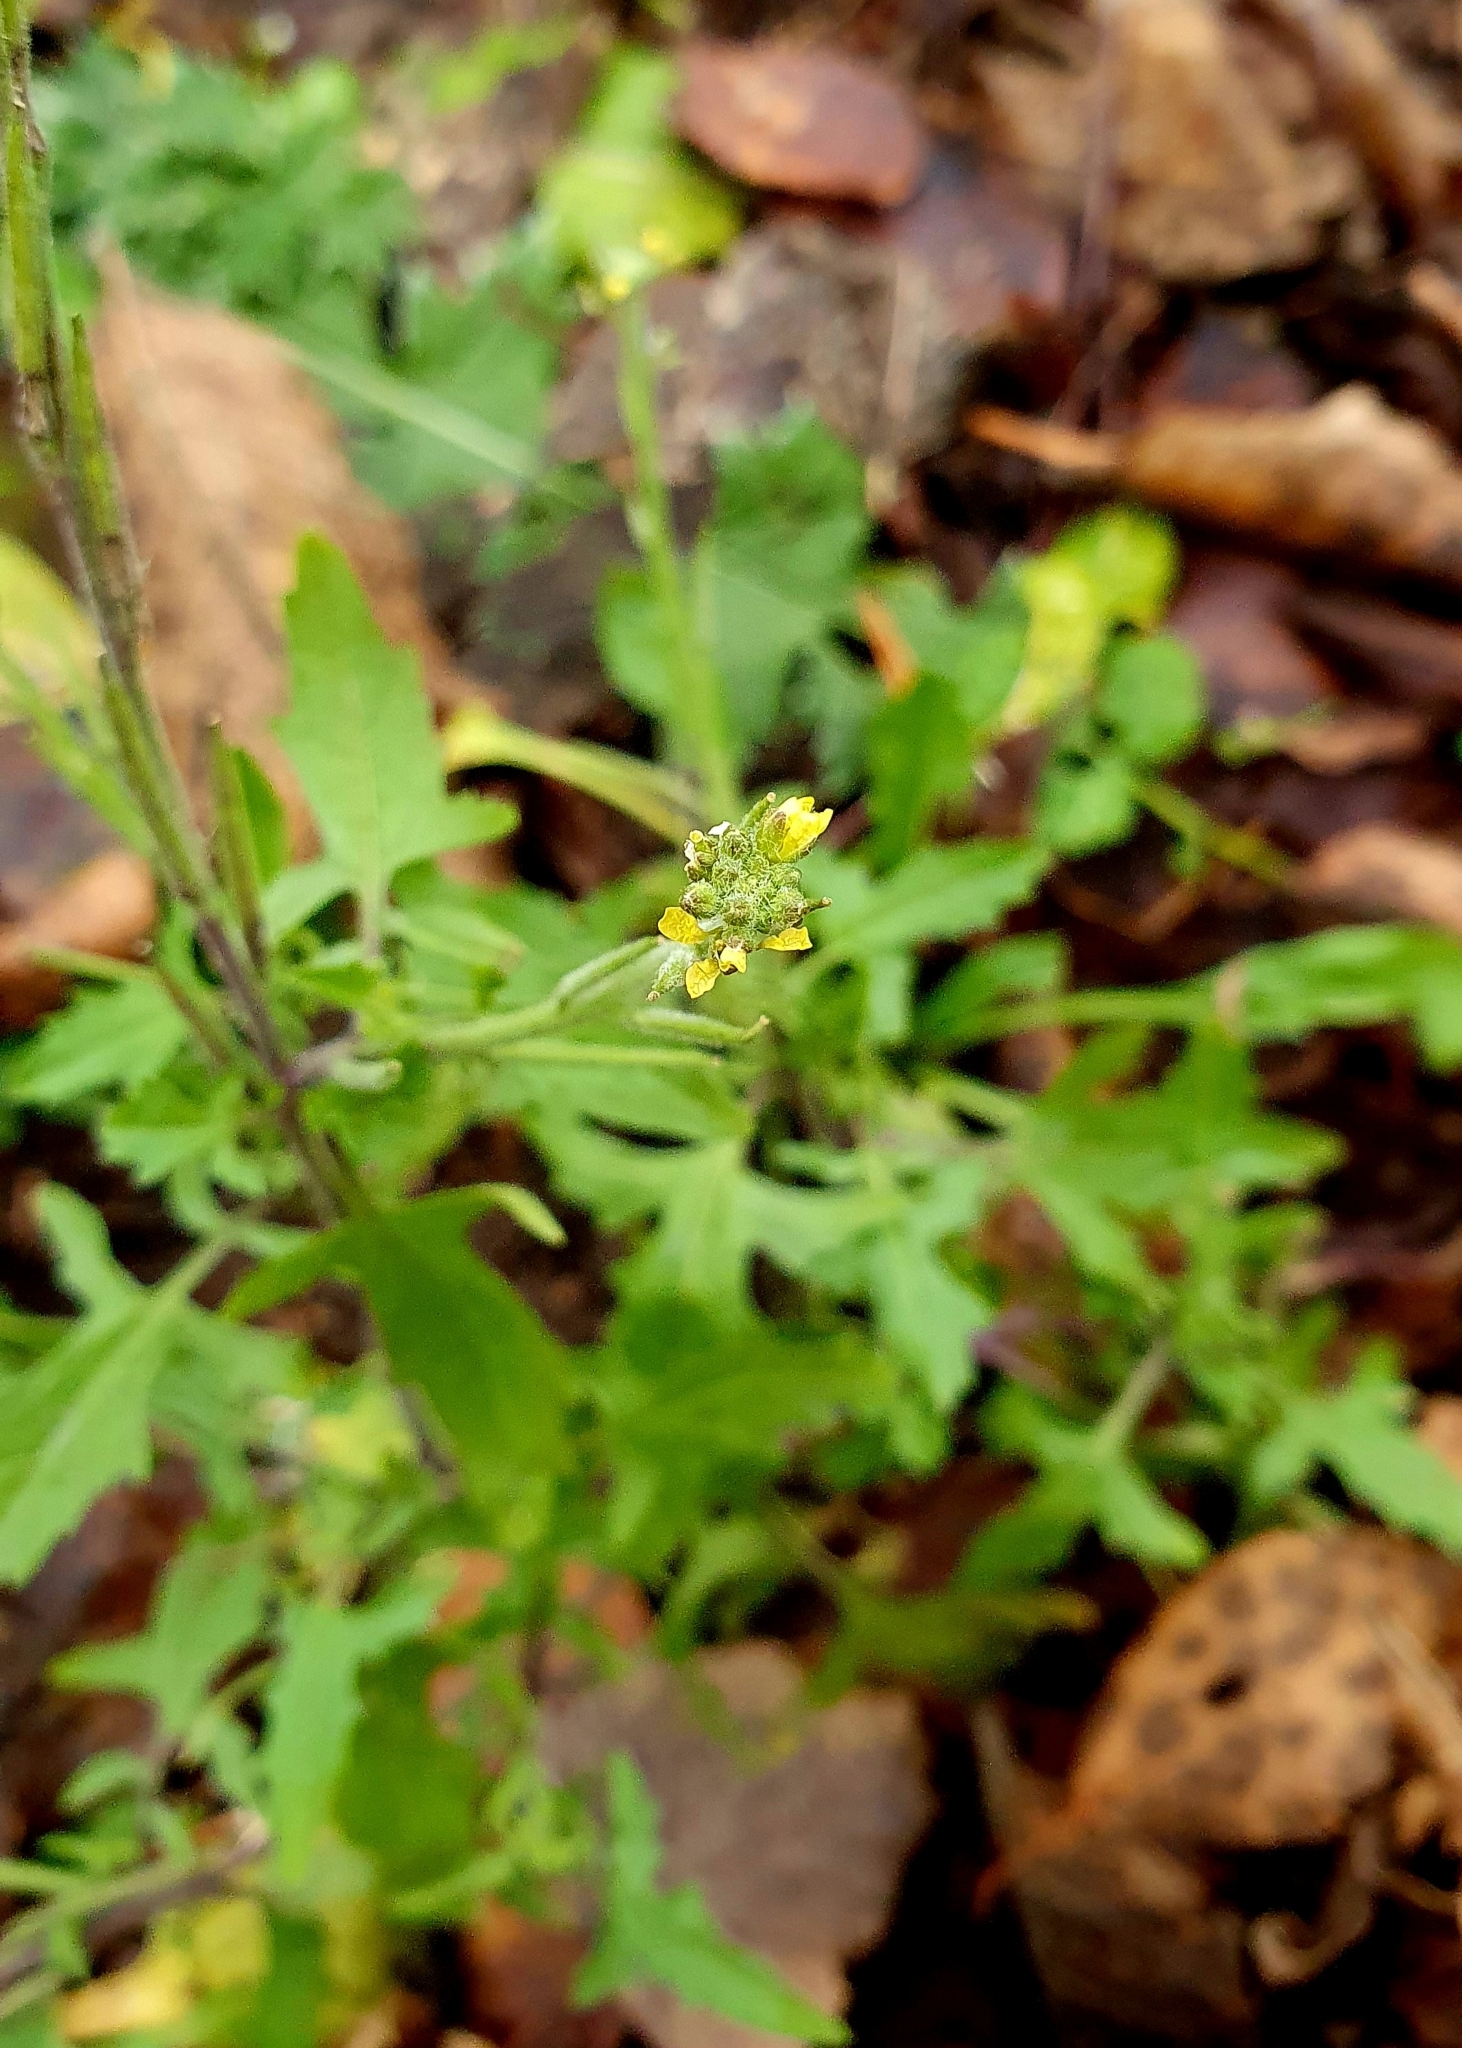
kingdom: Plantae
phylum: Tracheophyta
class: Magnoliopsida
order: Brassicales
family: Brassicaceae
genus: Sisymbrium
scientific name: Sisymbrium officinale
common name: Hedge mustard
